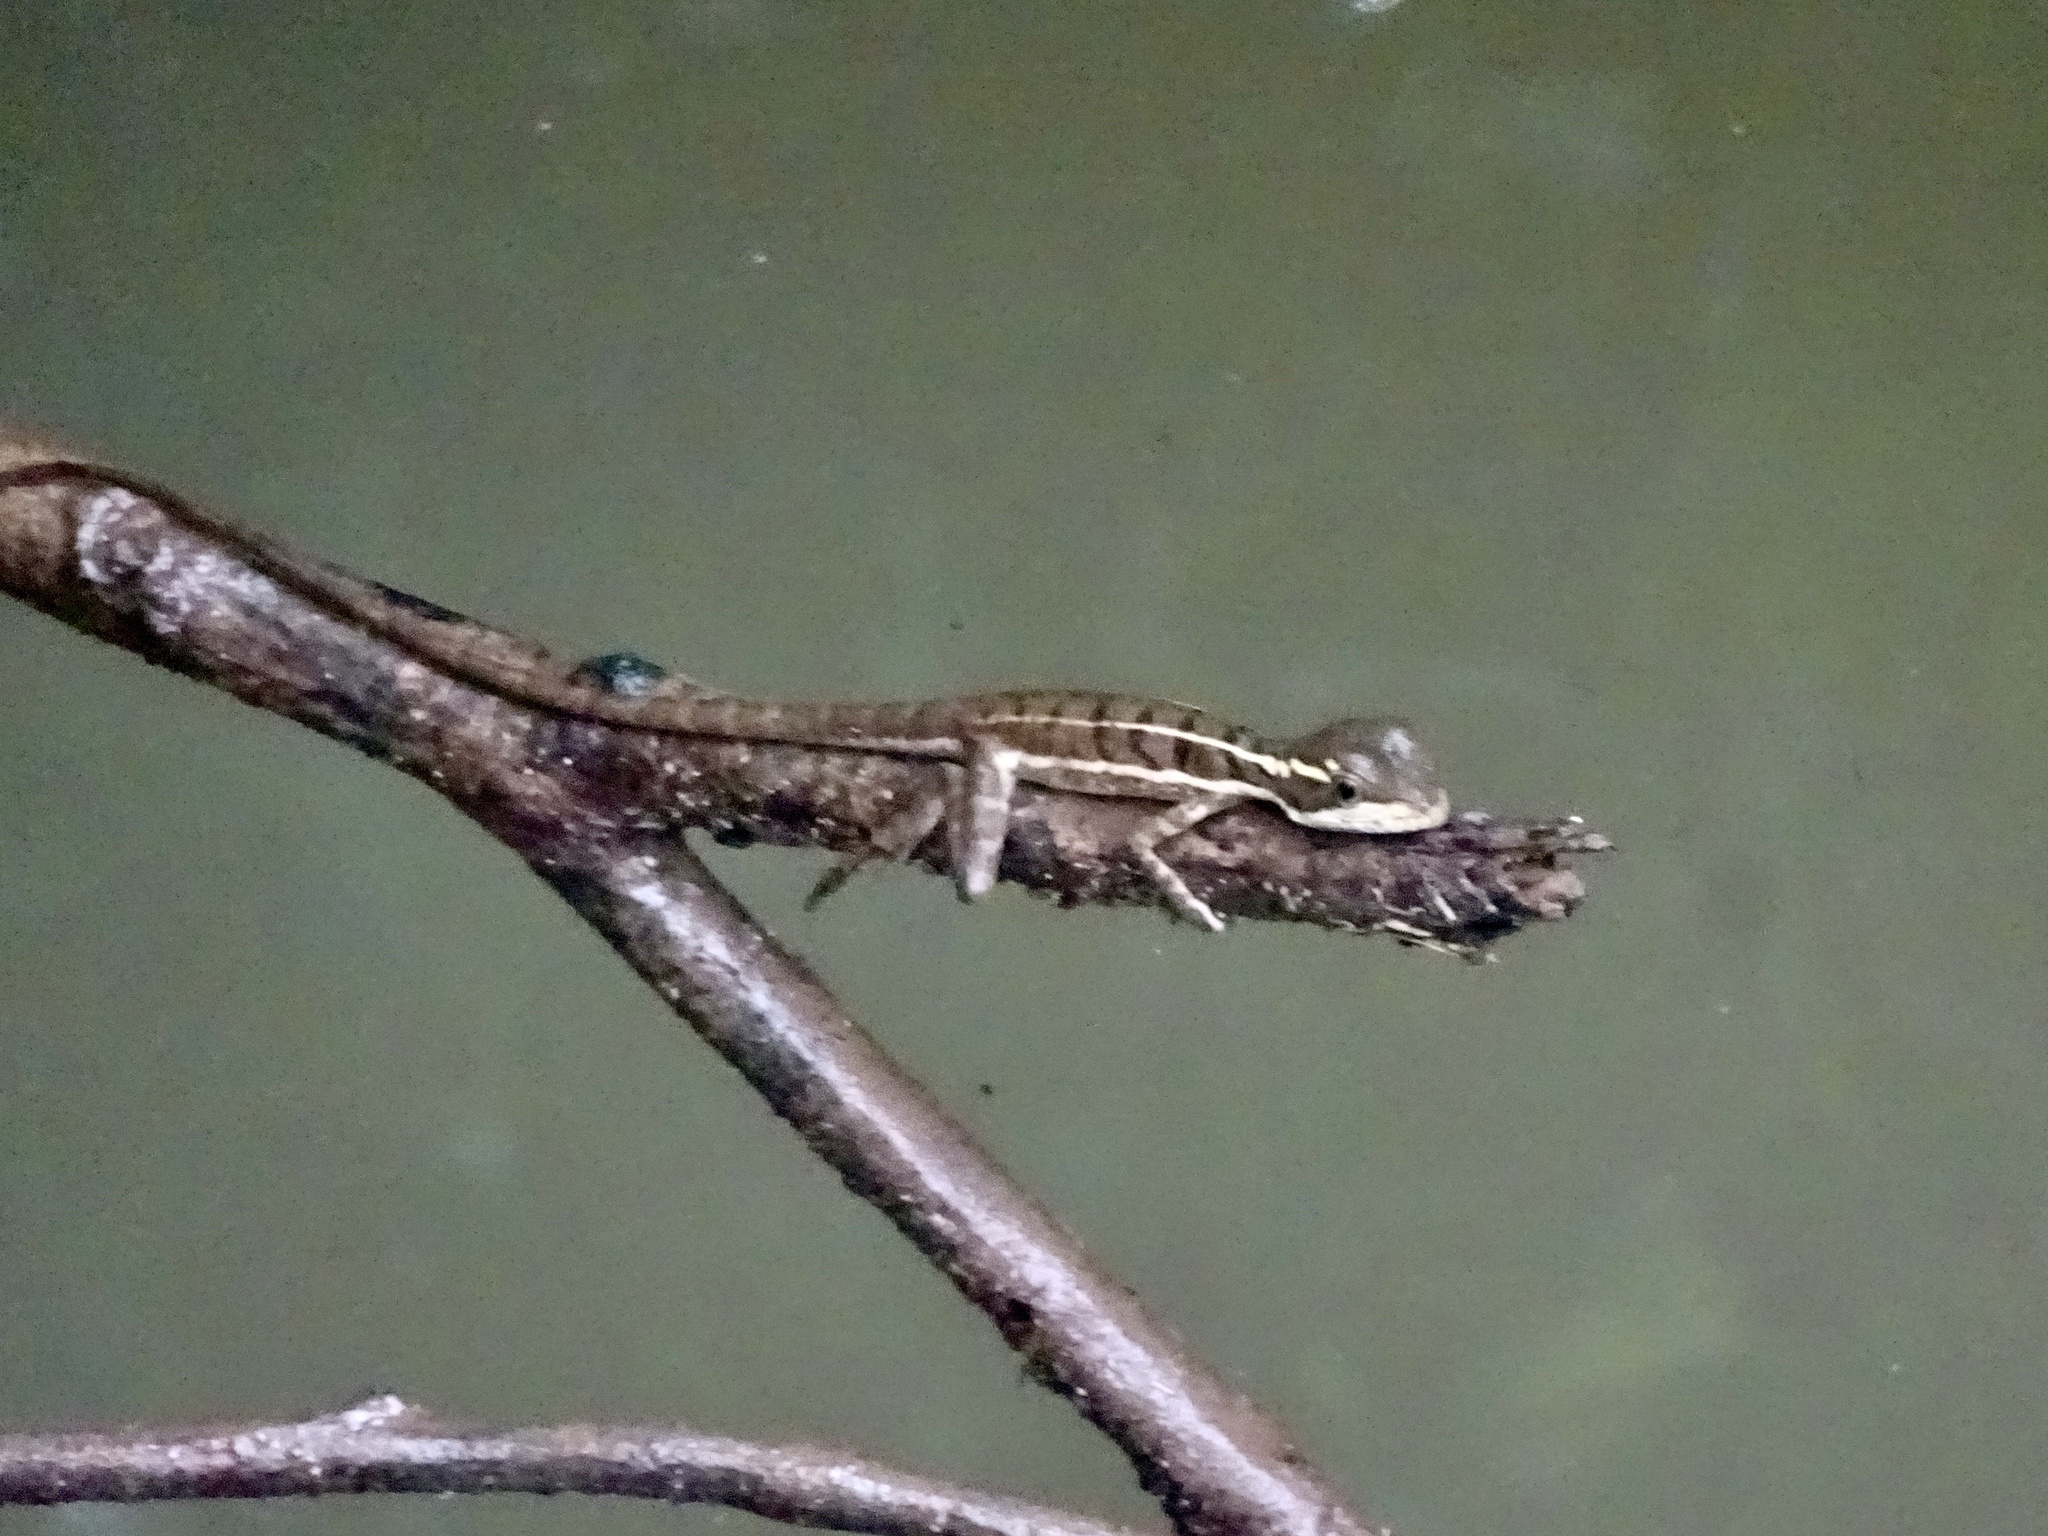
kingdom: Animalia
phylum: Chordata
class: Squamata
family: Corytophanidae
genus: Basiliscus
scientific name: Basiliscus basiliscus
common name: Common basilisk
